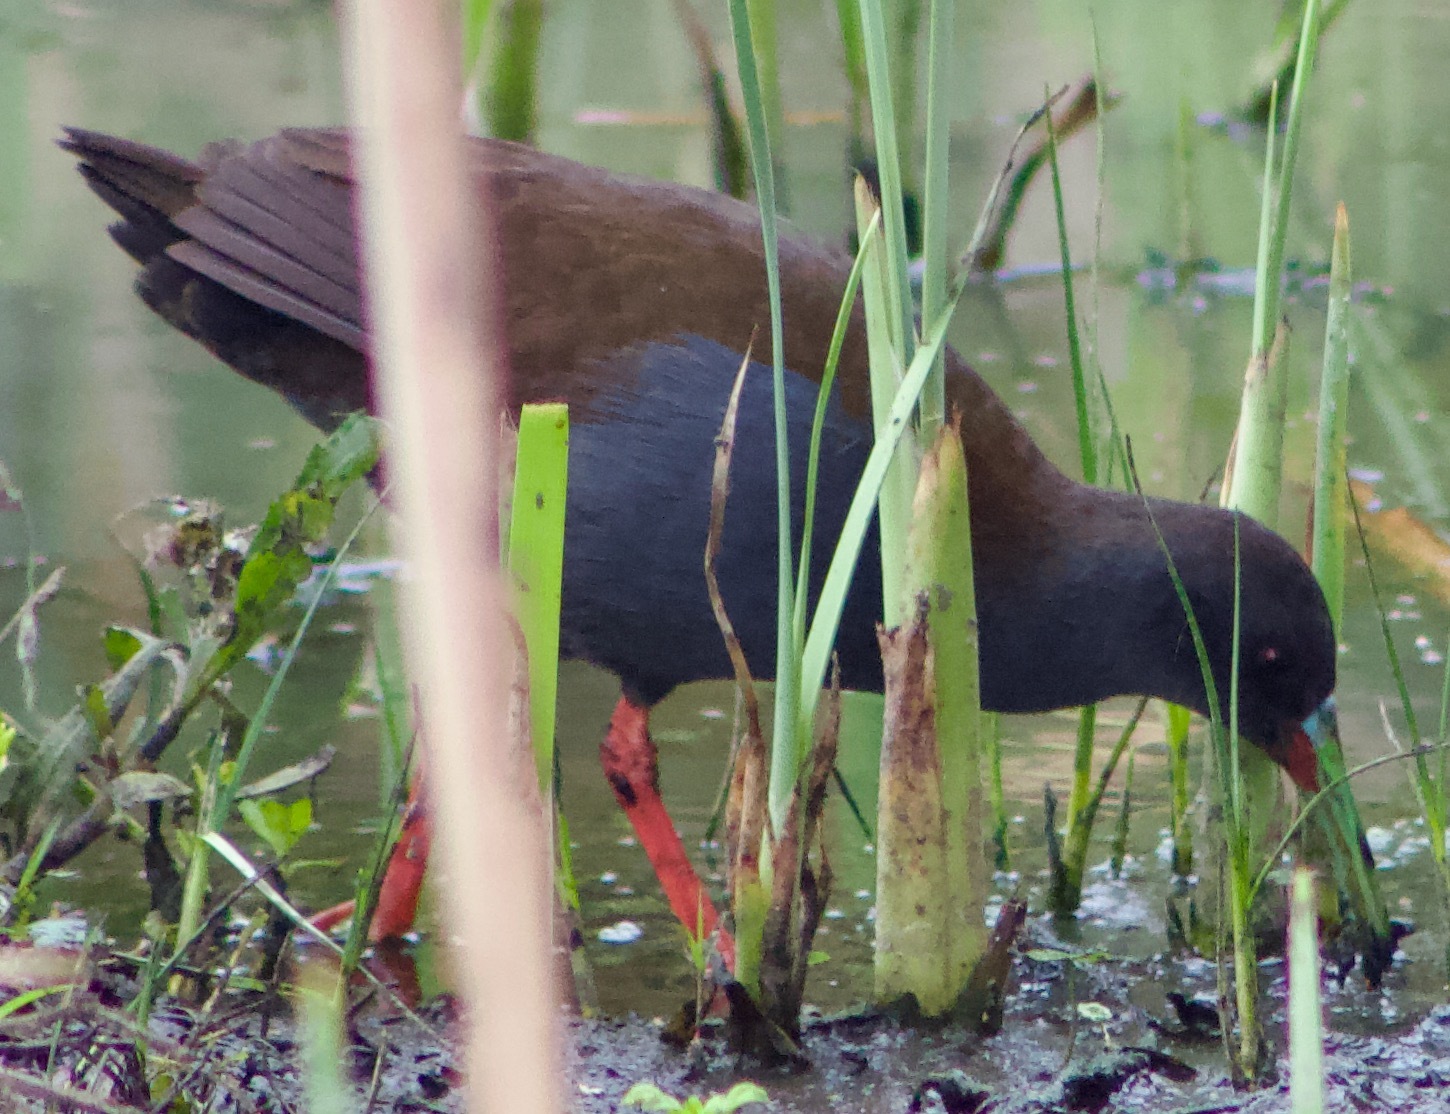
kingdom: Animalia
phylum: Chordata
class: Aves
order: Gruiformes
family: Rallidae
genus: Pardirallus
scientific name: Pardirallus sanguinolentus
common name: Plumbeous rail
